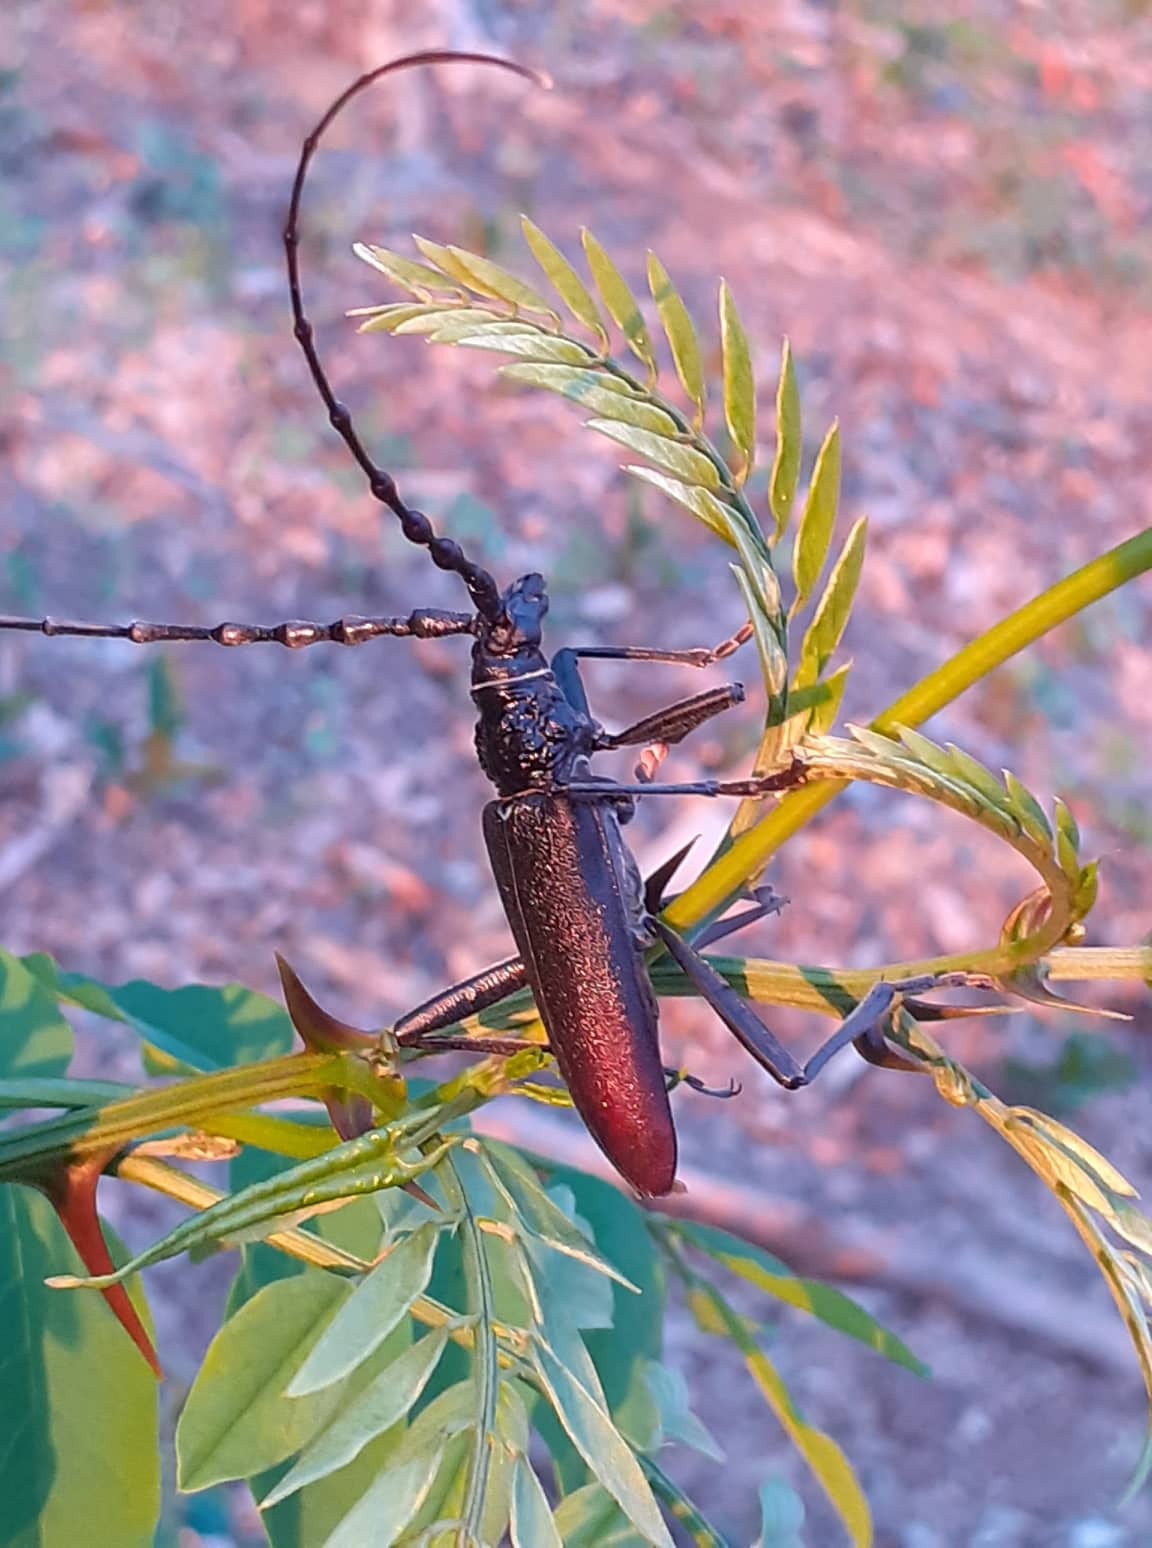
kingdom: Animalia
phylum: Arthropoda
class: Insecta
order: Coleoptera
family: Cerambycidae
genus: Cerambyx
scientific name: Cerambyx cerdo
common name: Cerambyx longicorn
